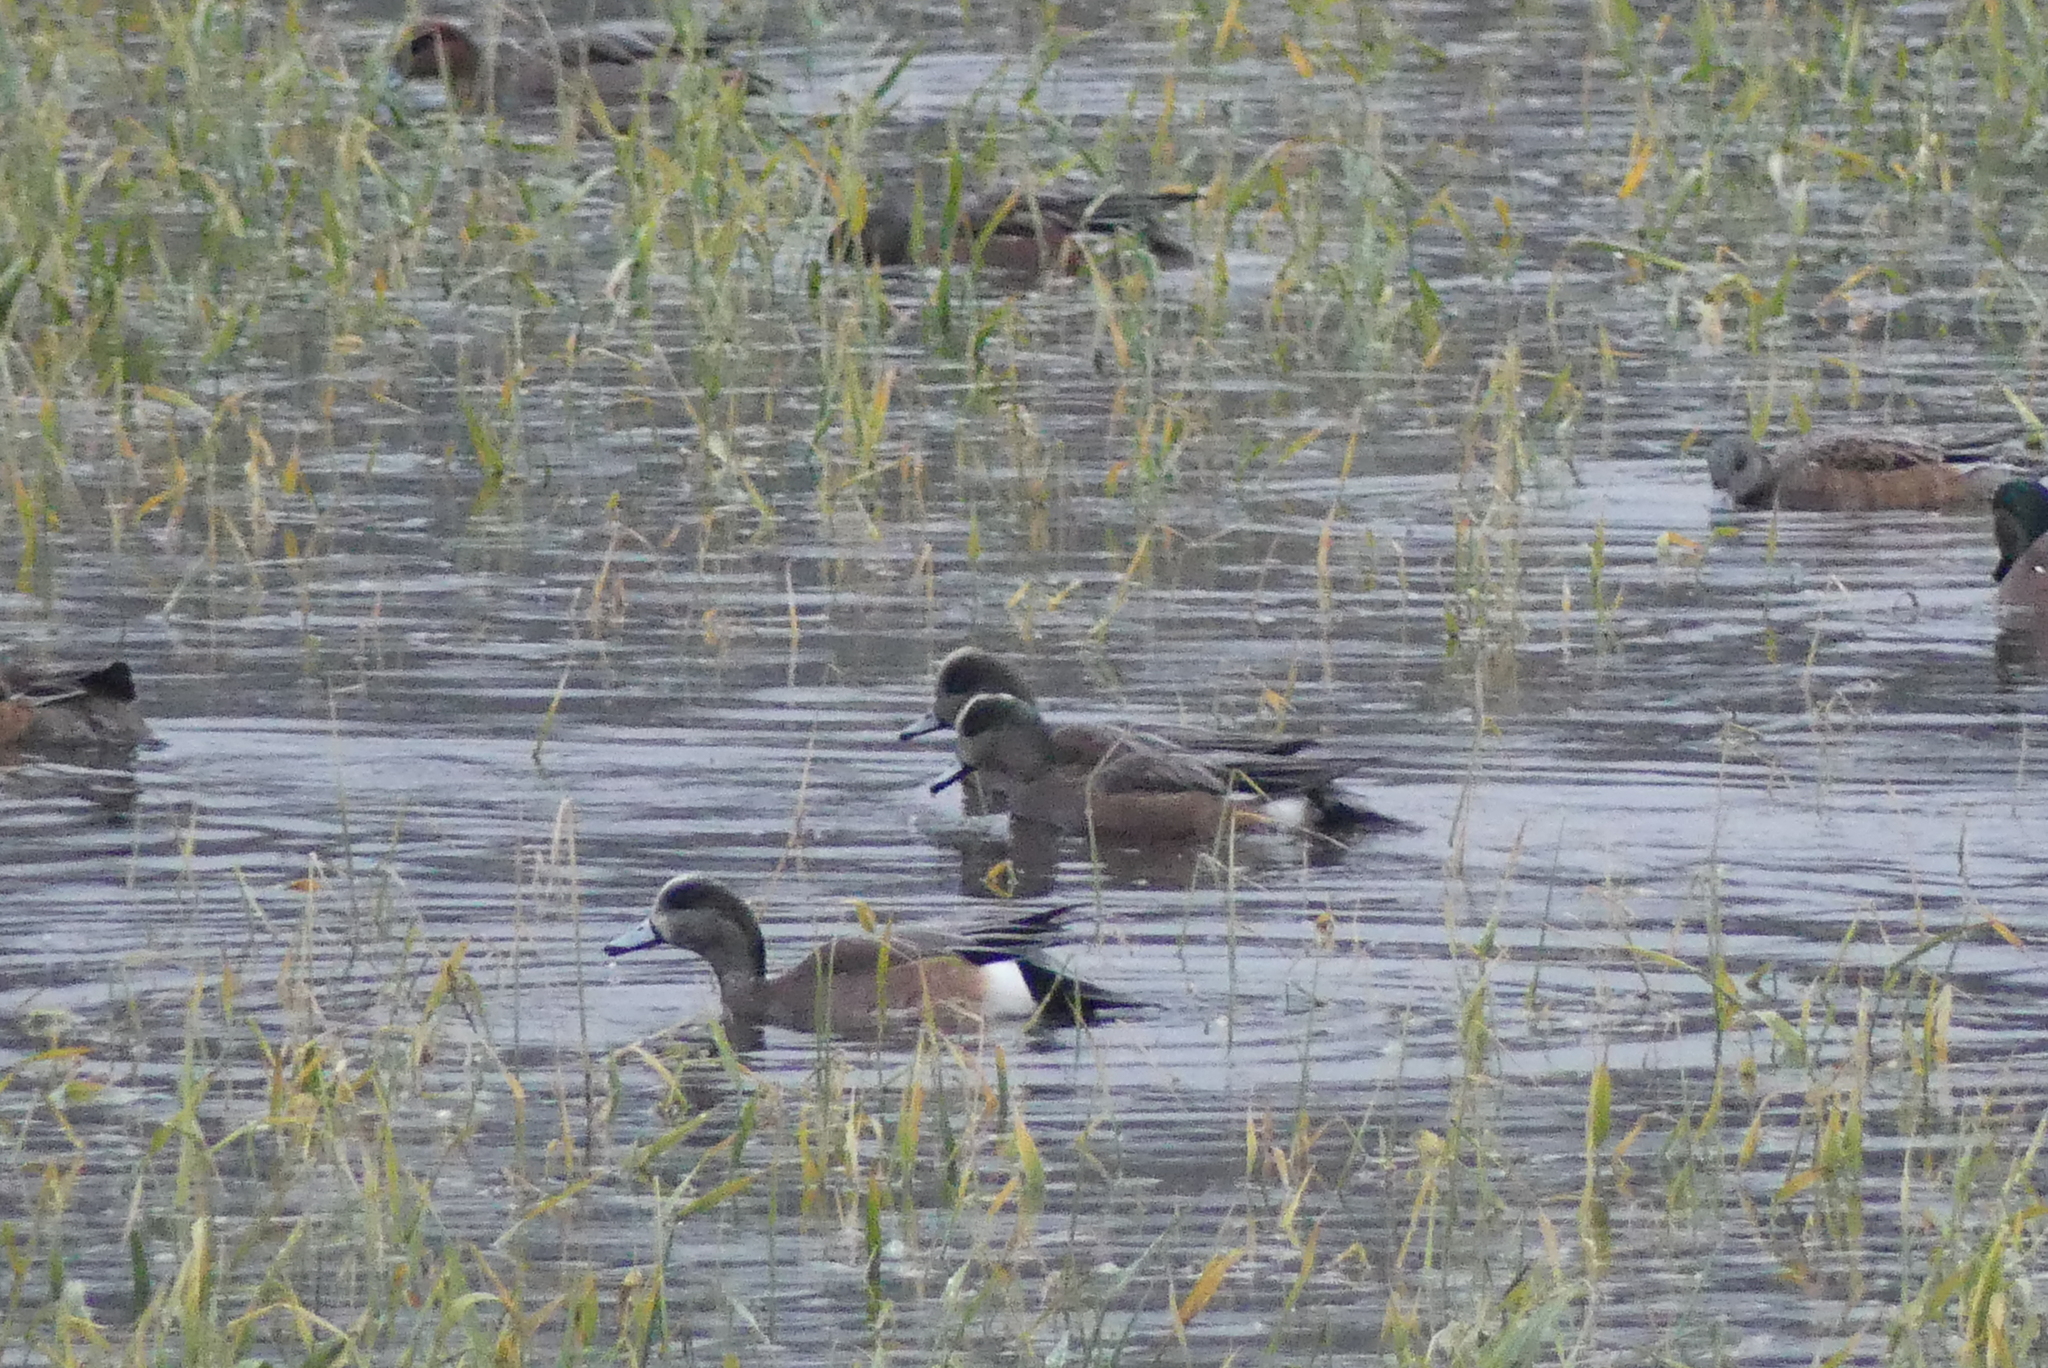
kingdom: Animalia
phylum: Chordata
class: Aves
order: Anseriformes
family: Anatidae
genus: Mareca
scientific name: Mareca americana
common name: American wigeon
